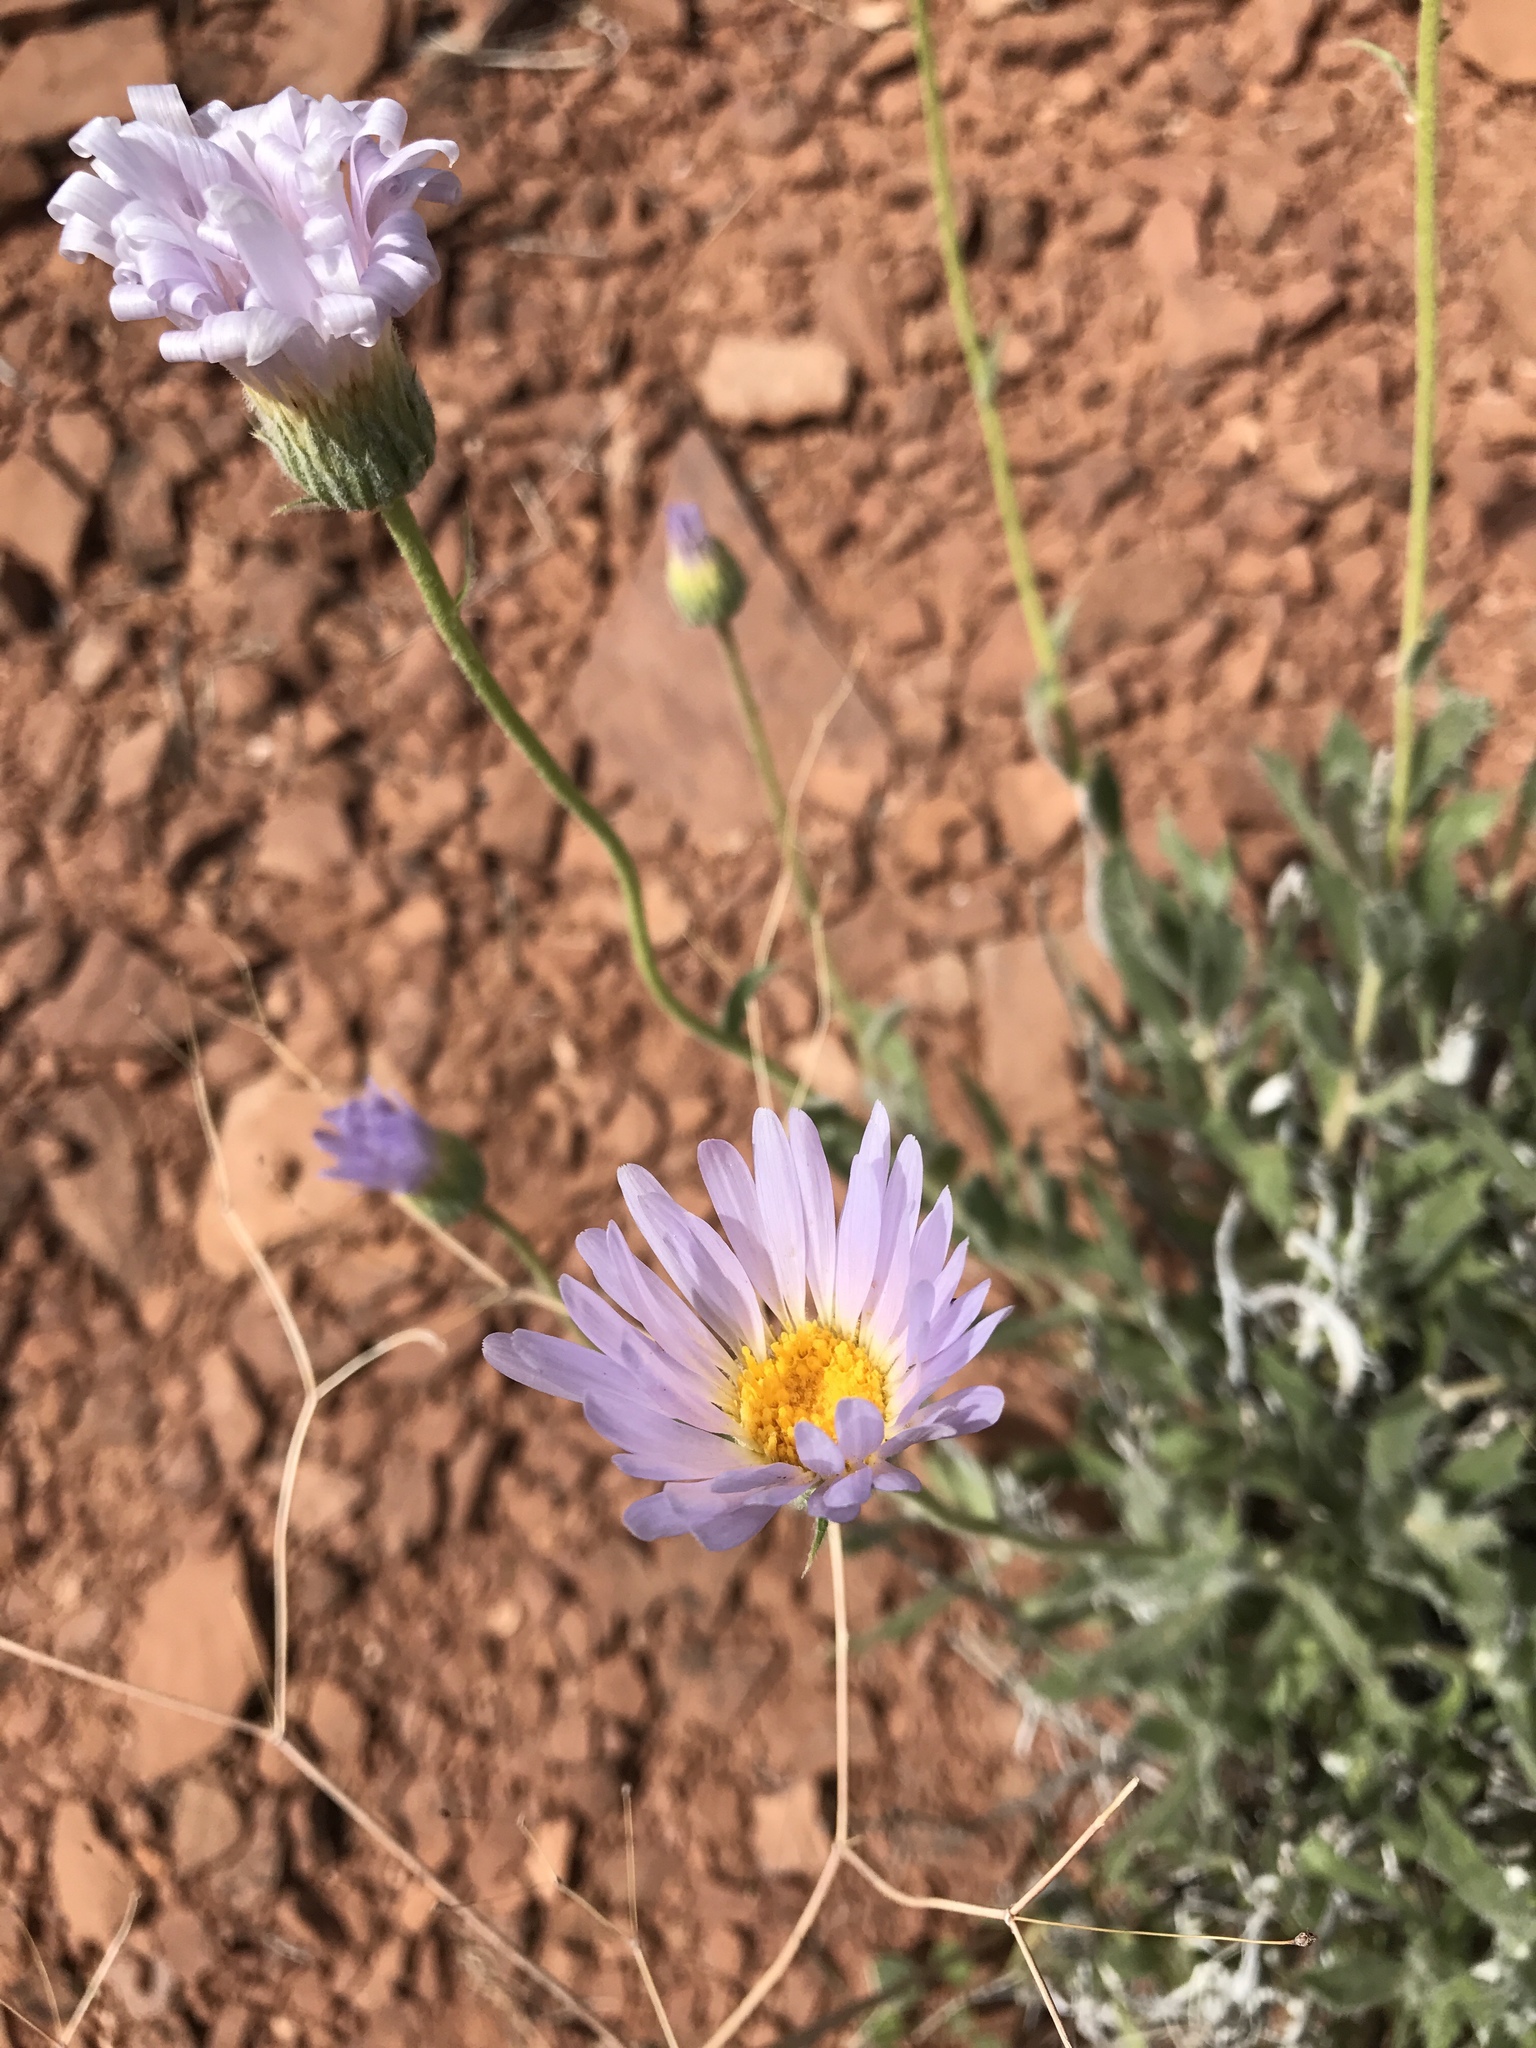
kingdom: Plantae
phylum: Tracheophyta
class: Magnoliopsida
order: Asterales
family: Asteraceae
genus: Xylorhiza
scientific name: Xylorhiza tortifolia
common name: Hurt-leaf woody-aster
